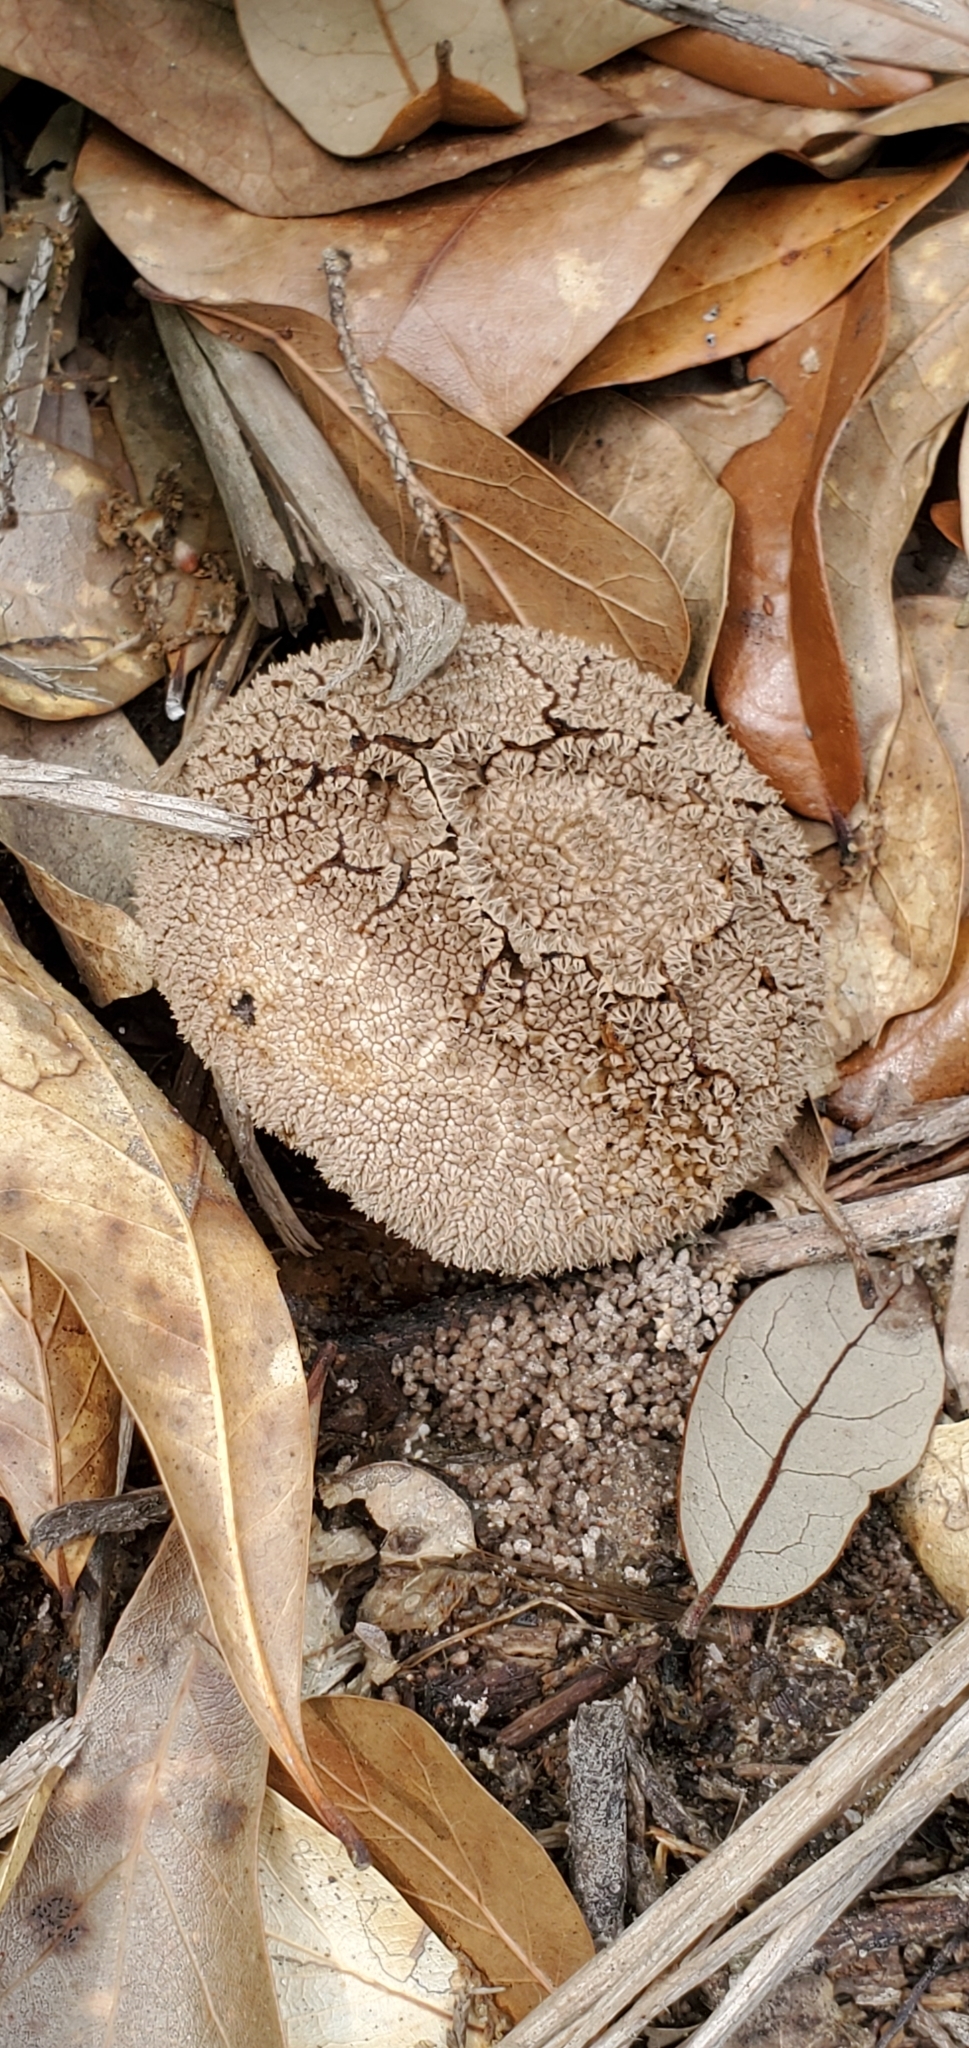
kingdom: Fungi
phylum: Basidiomycota
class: Agaricomycetes
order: Agaricales
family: Agaricaceae
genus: Lycoperdon
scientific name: Lycoperdon marginatum
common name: Peeling puffball
